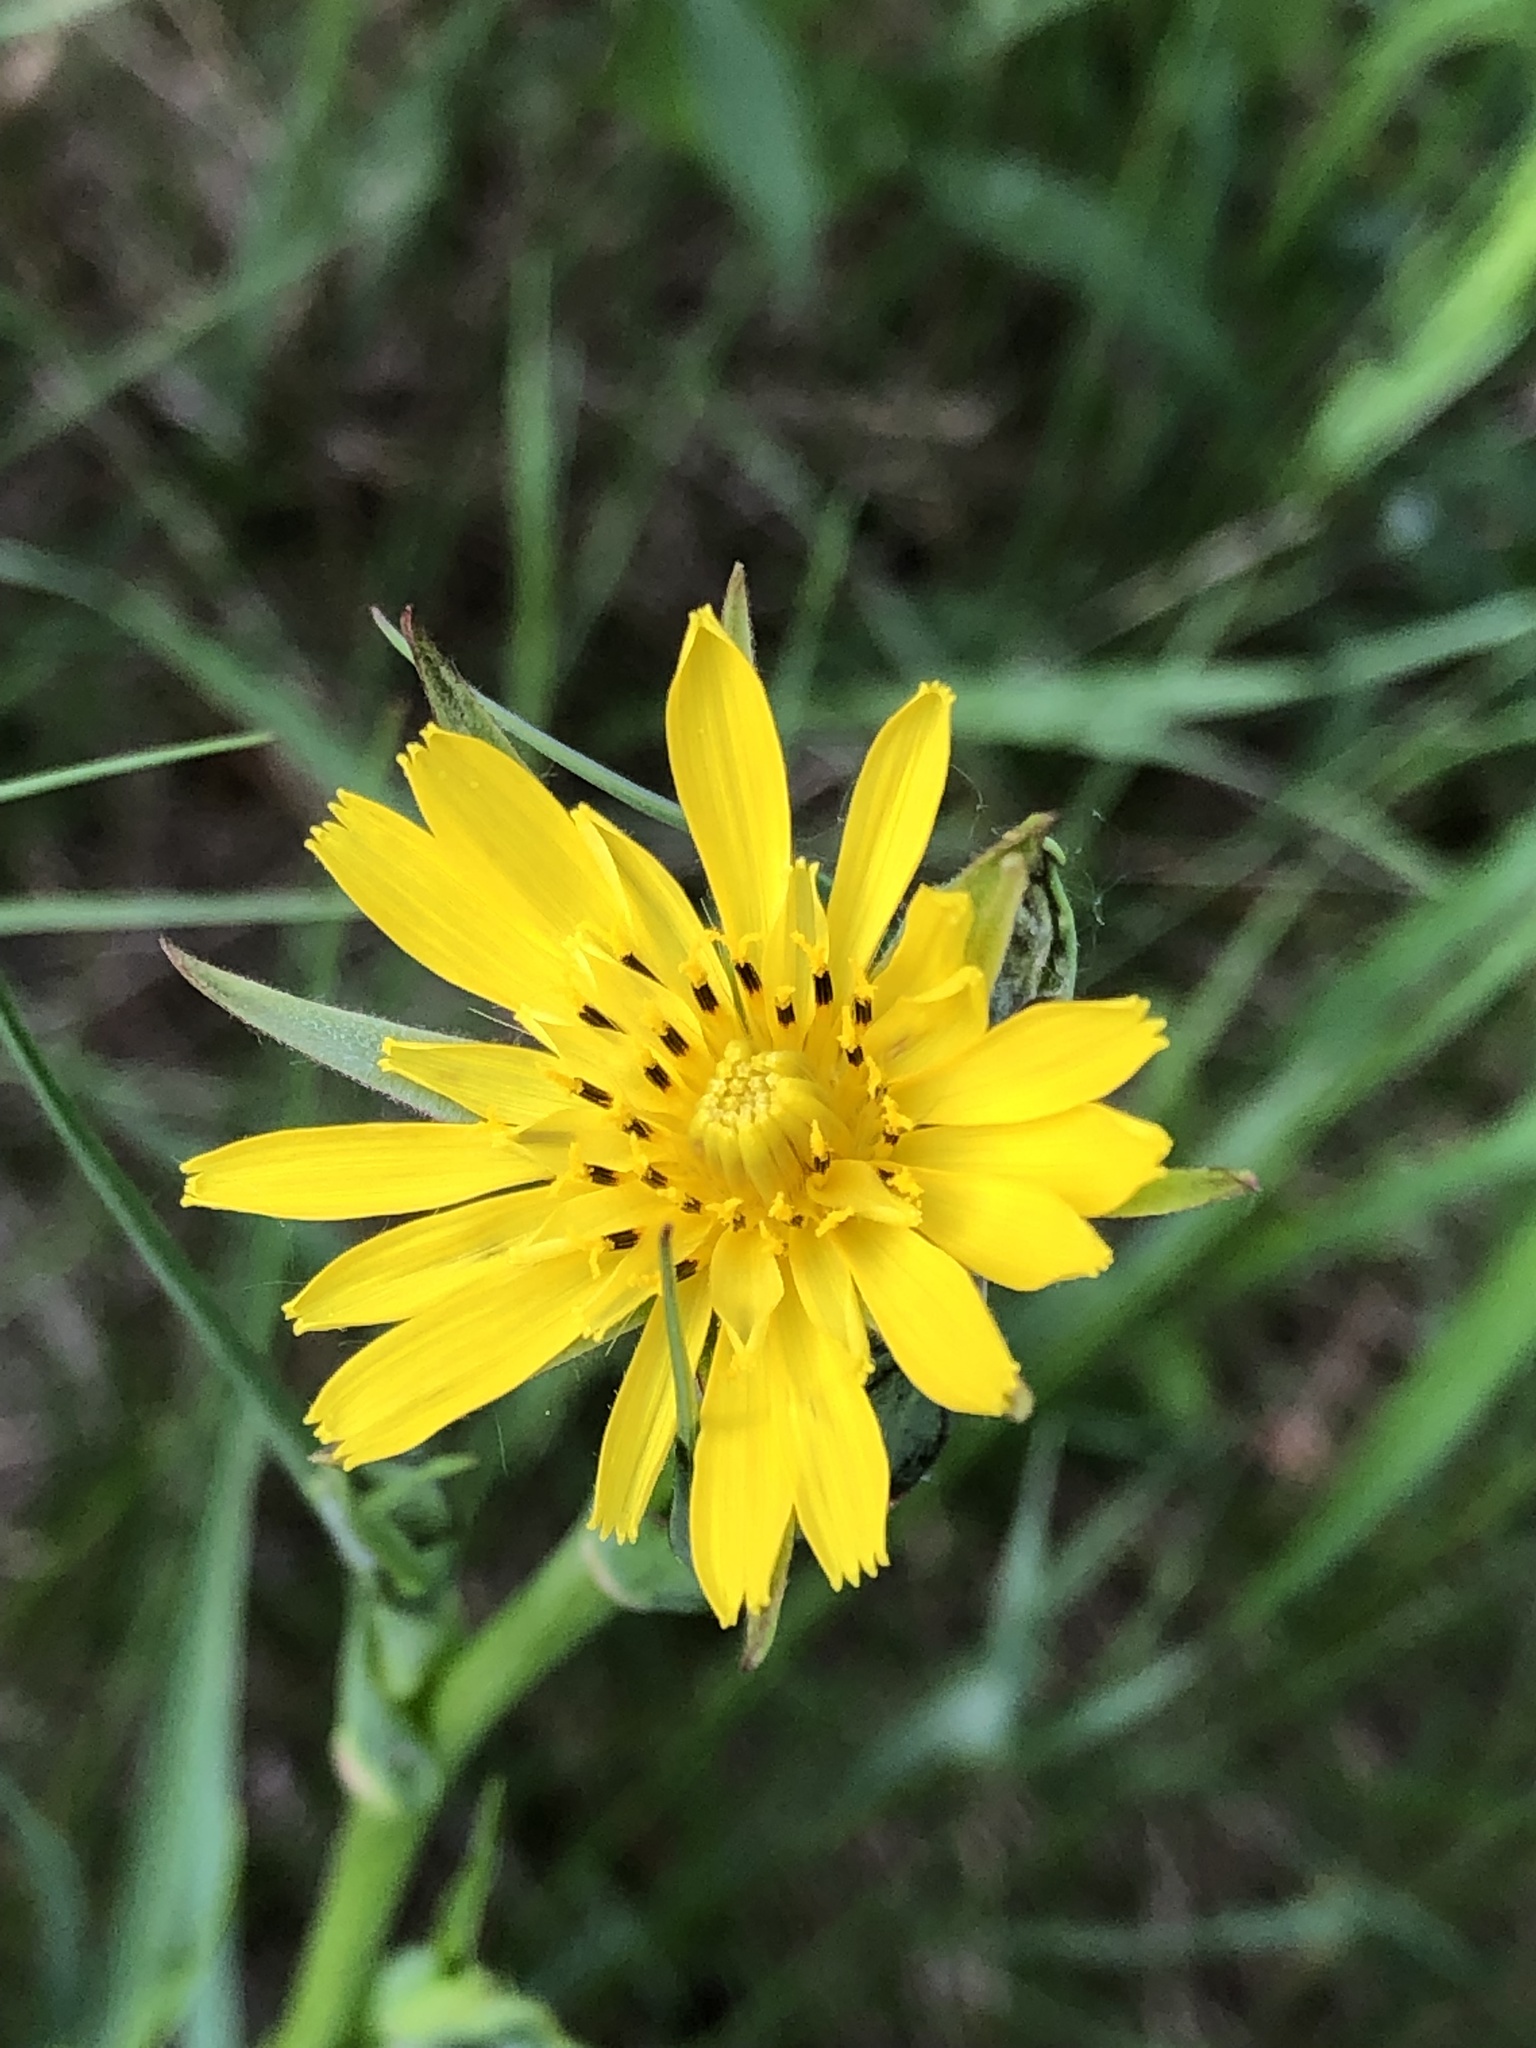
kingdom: Plantae
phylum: Tracheophyta
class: Magnoliopsida
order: Asterales
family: Asteraceae
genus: Tragopogon
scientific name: Tragopogon pratensis
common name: Goat's-beard
